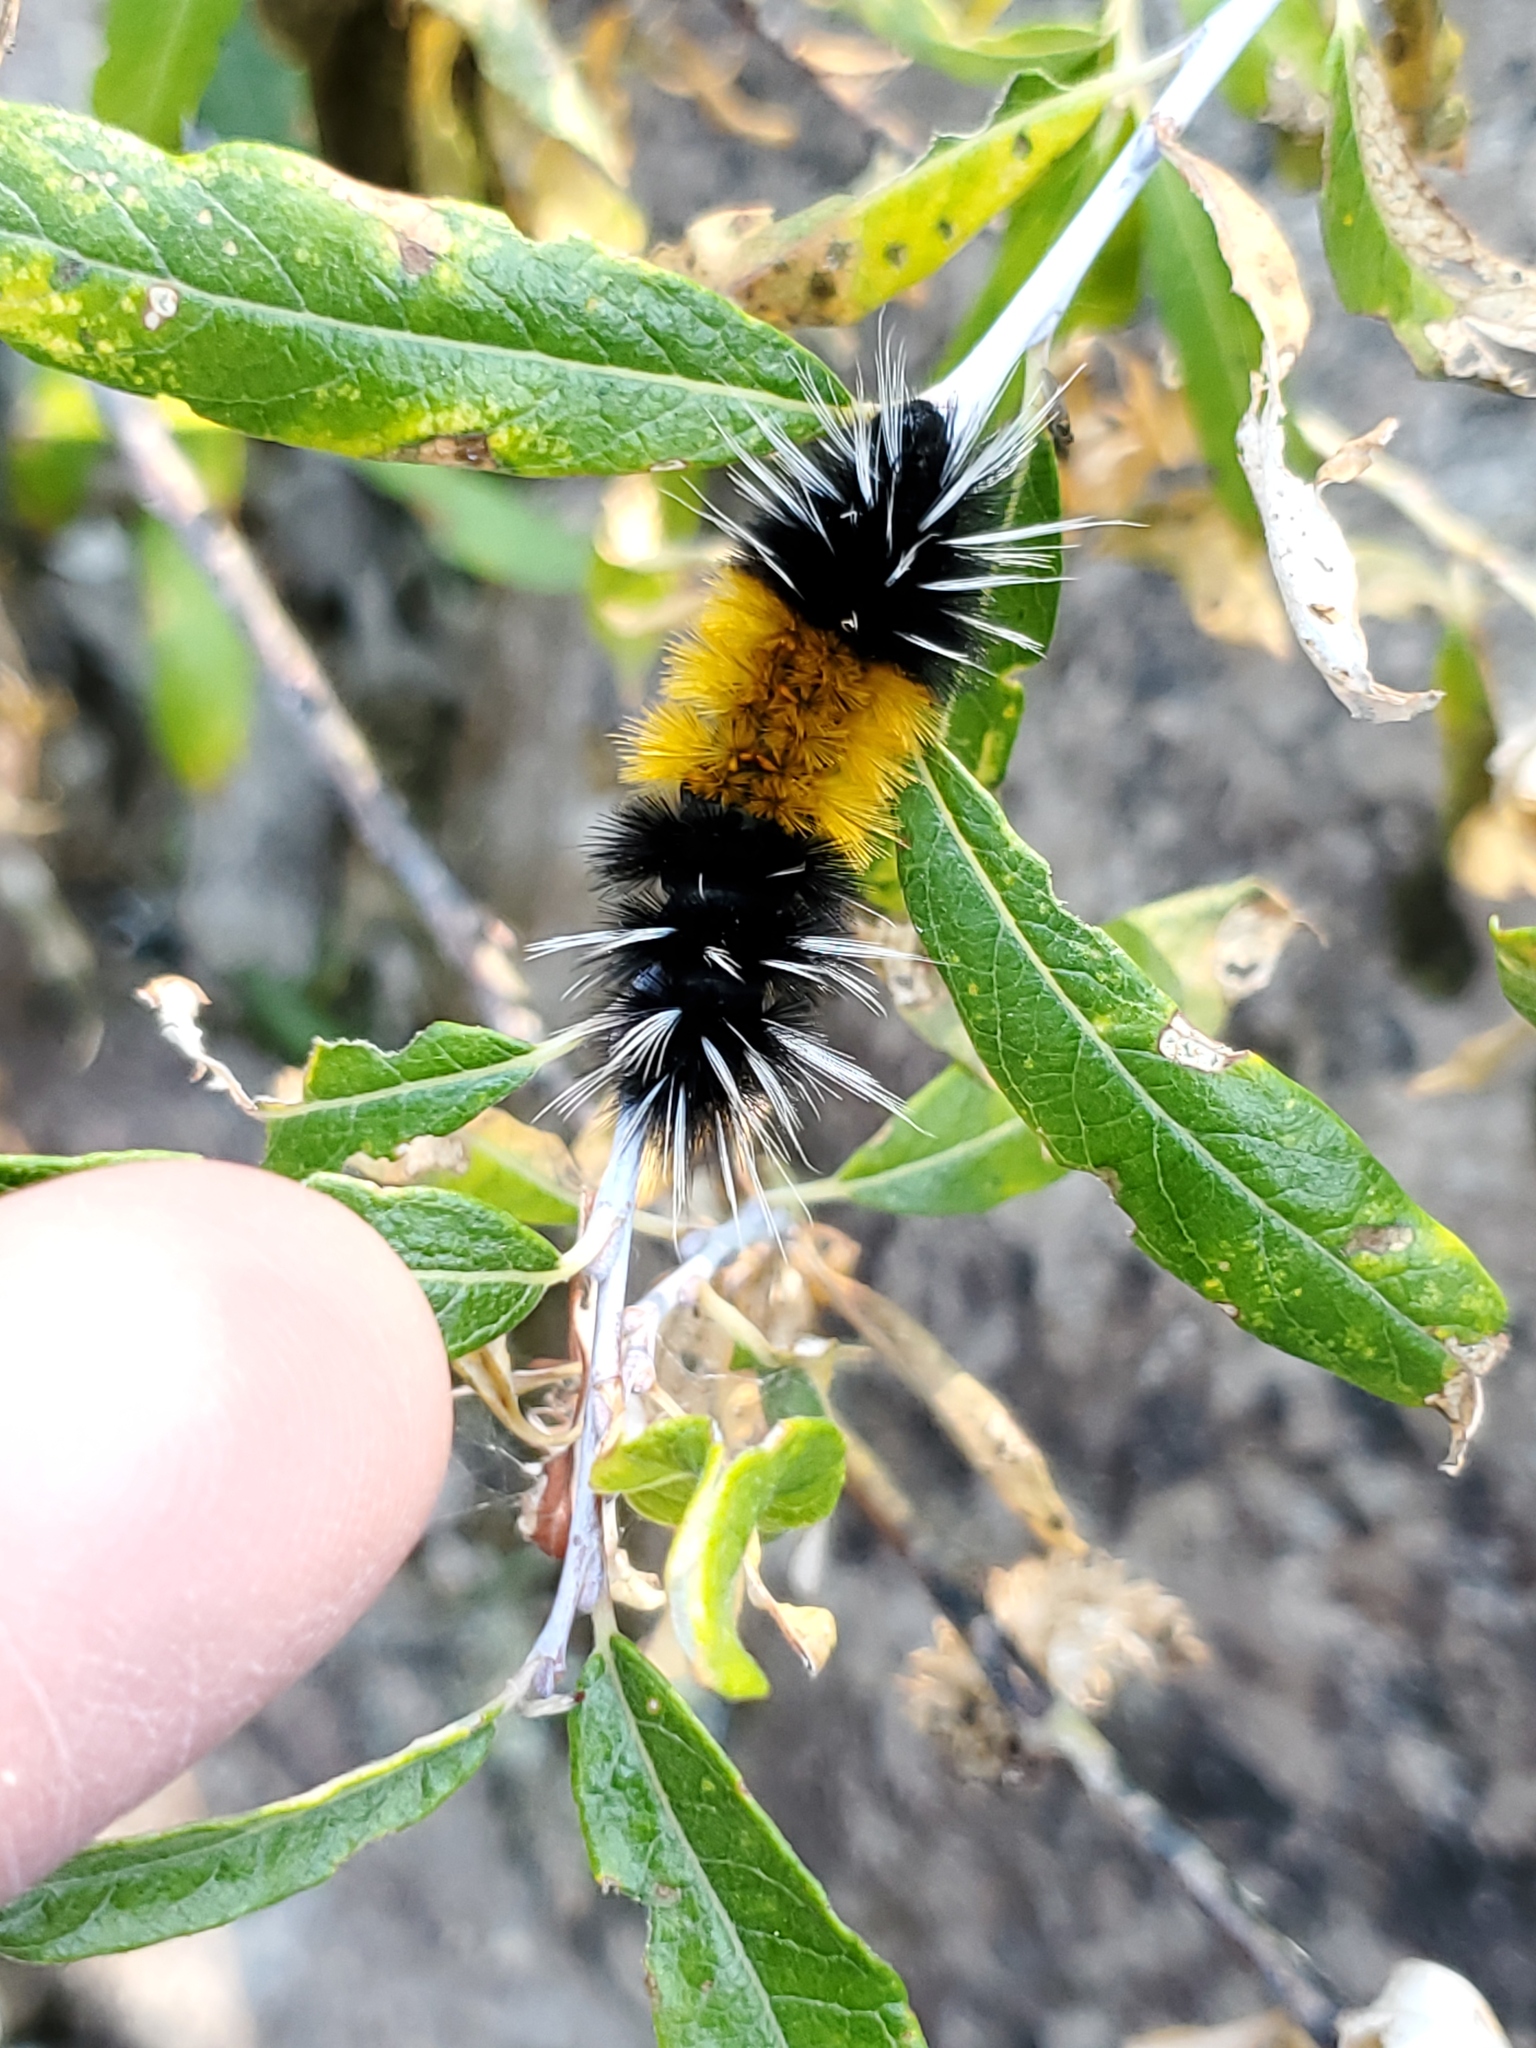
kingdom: Animalia
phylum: Arthropoda
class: Insecta
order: Lepidoptera
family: Erebidae
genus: Lophocampa
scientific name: Lophocampa maculata
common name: Spotted tussock moth
